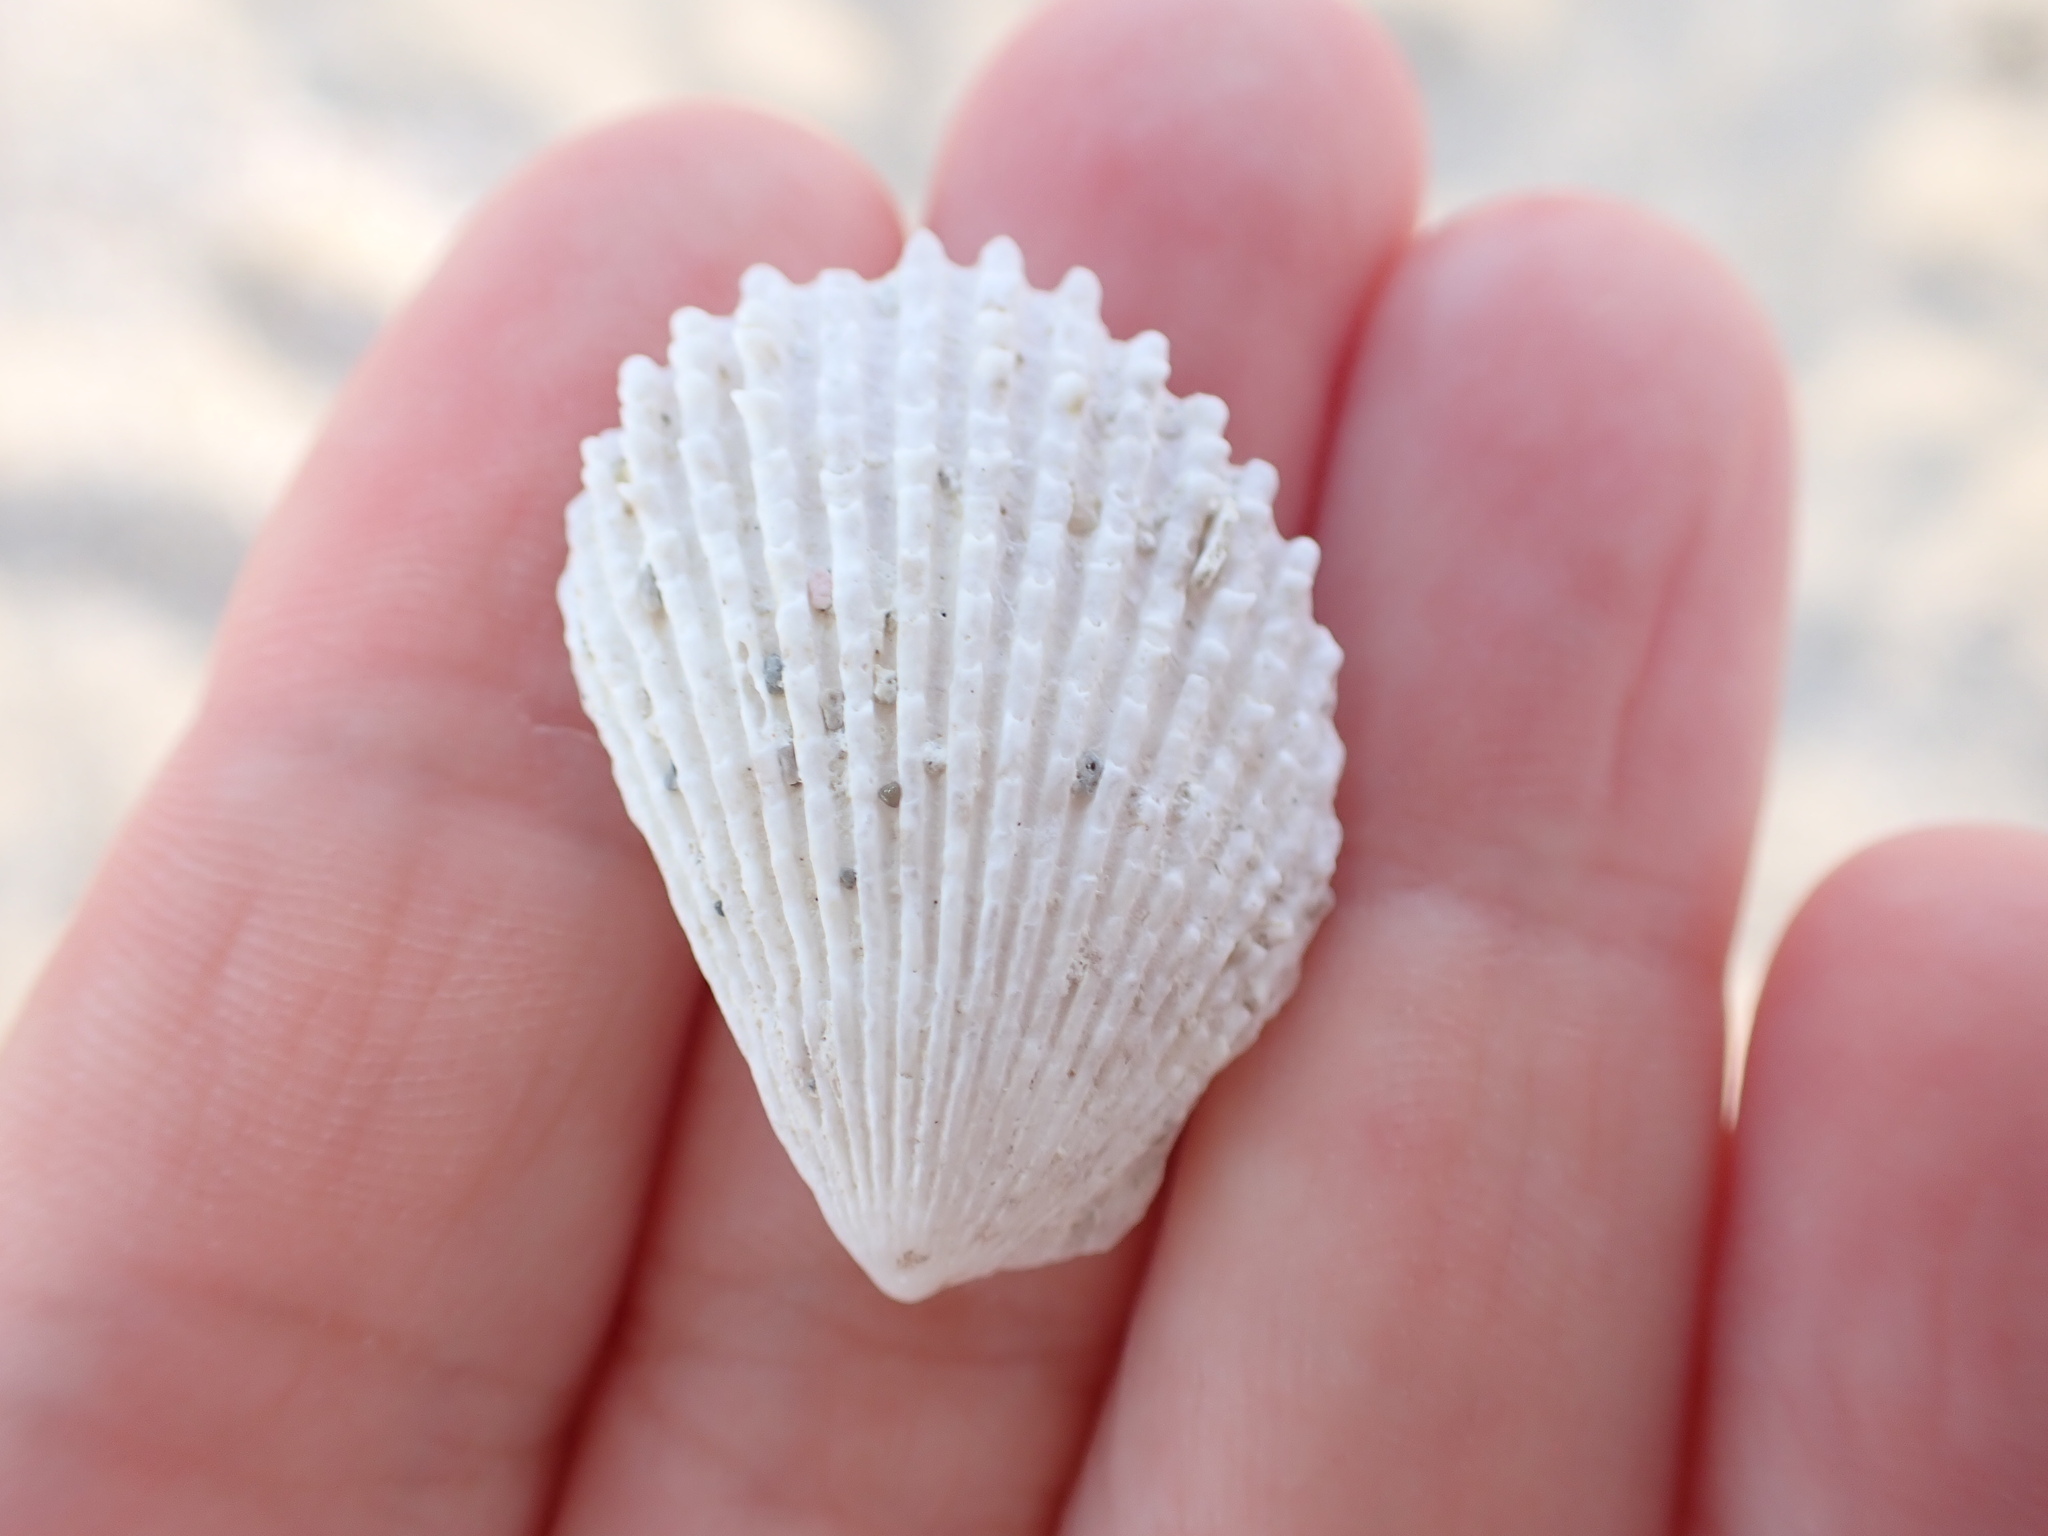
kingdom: Animalia
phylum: Mollusca
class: Bivalvia
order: Limida
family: Limidae
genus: Lima
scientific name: Lima lima
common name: Frilled file shell
